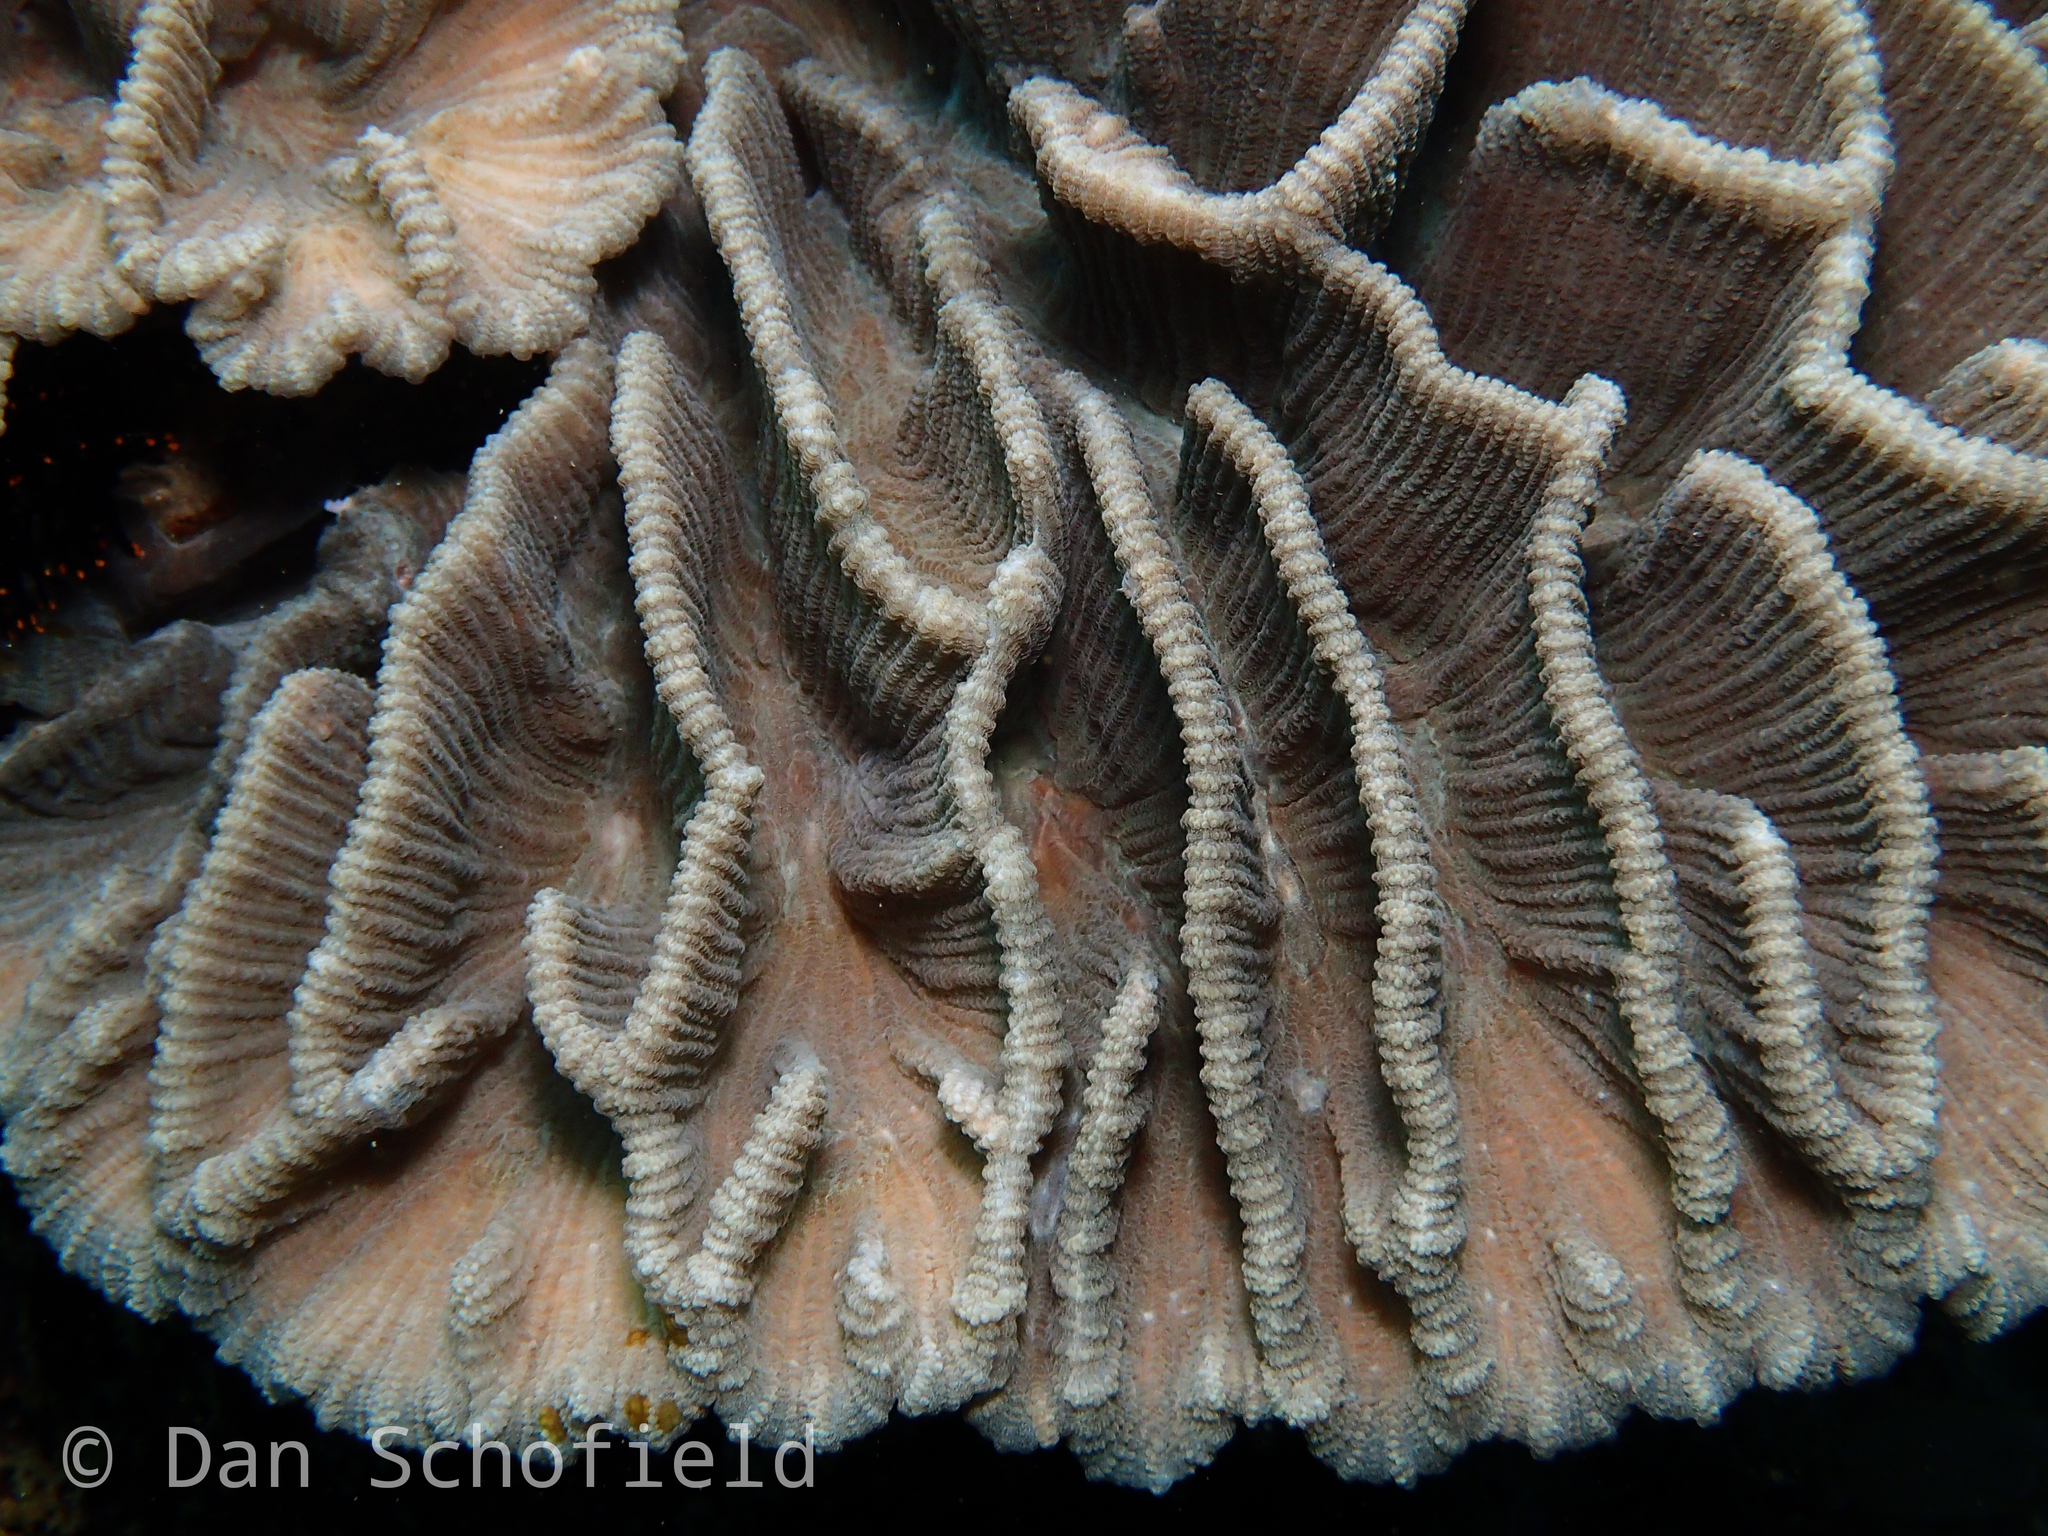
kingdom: Animalia
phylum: Cnidaria
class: Anthozoa
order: Scleractinia
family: Merulinidae
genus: Pectinia
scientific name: Pectinia lactuca
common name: Common lettuce coral
